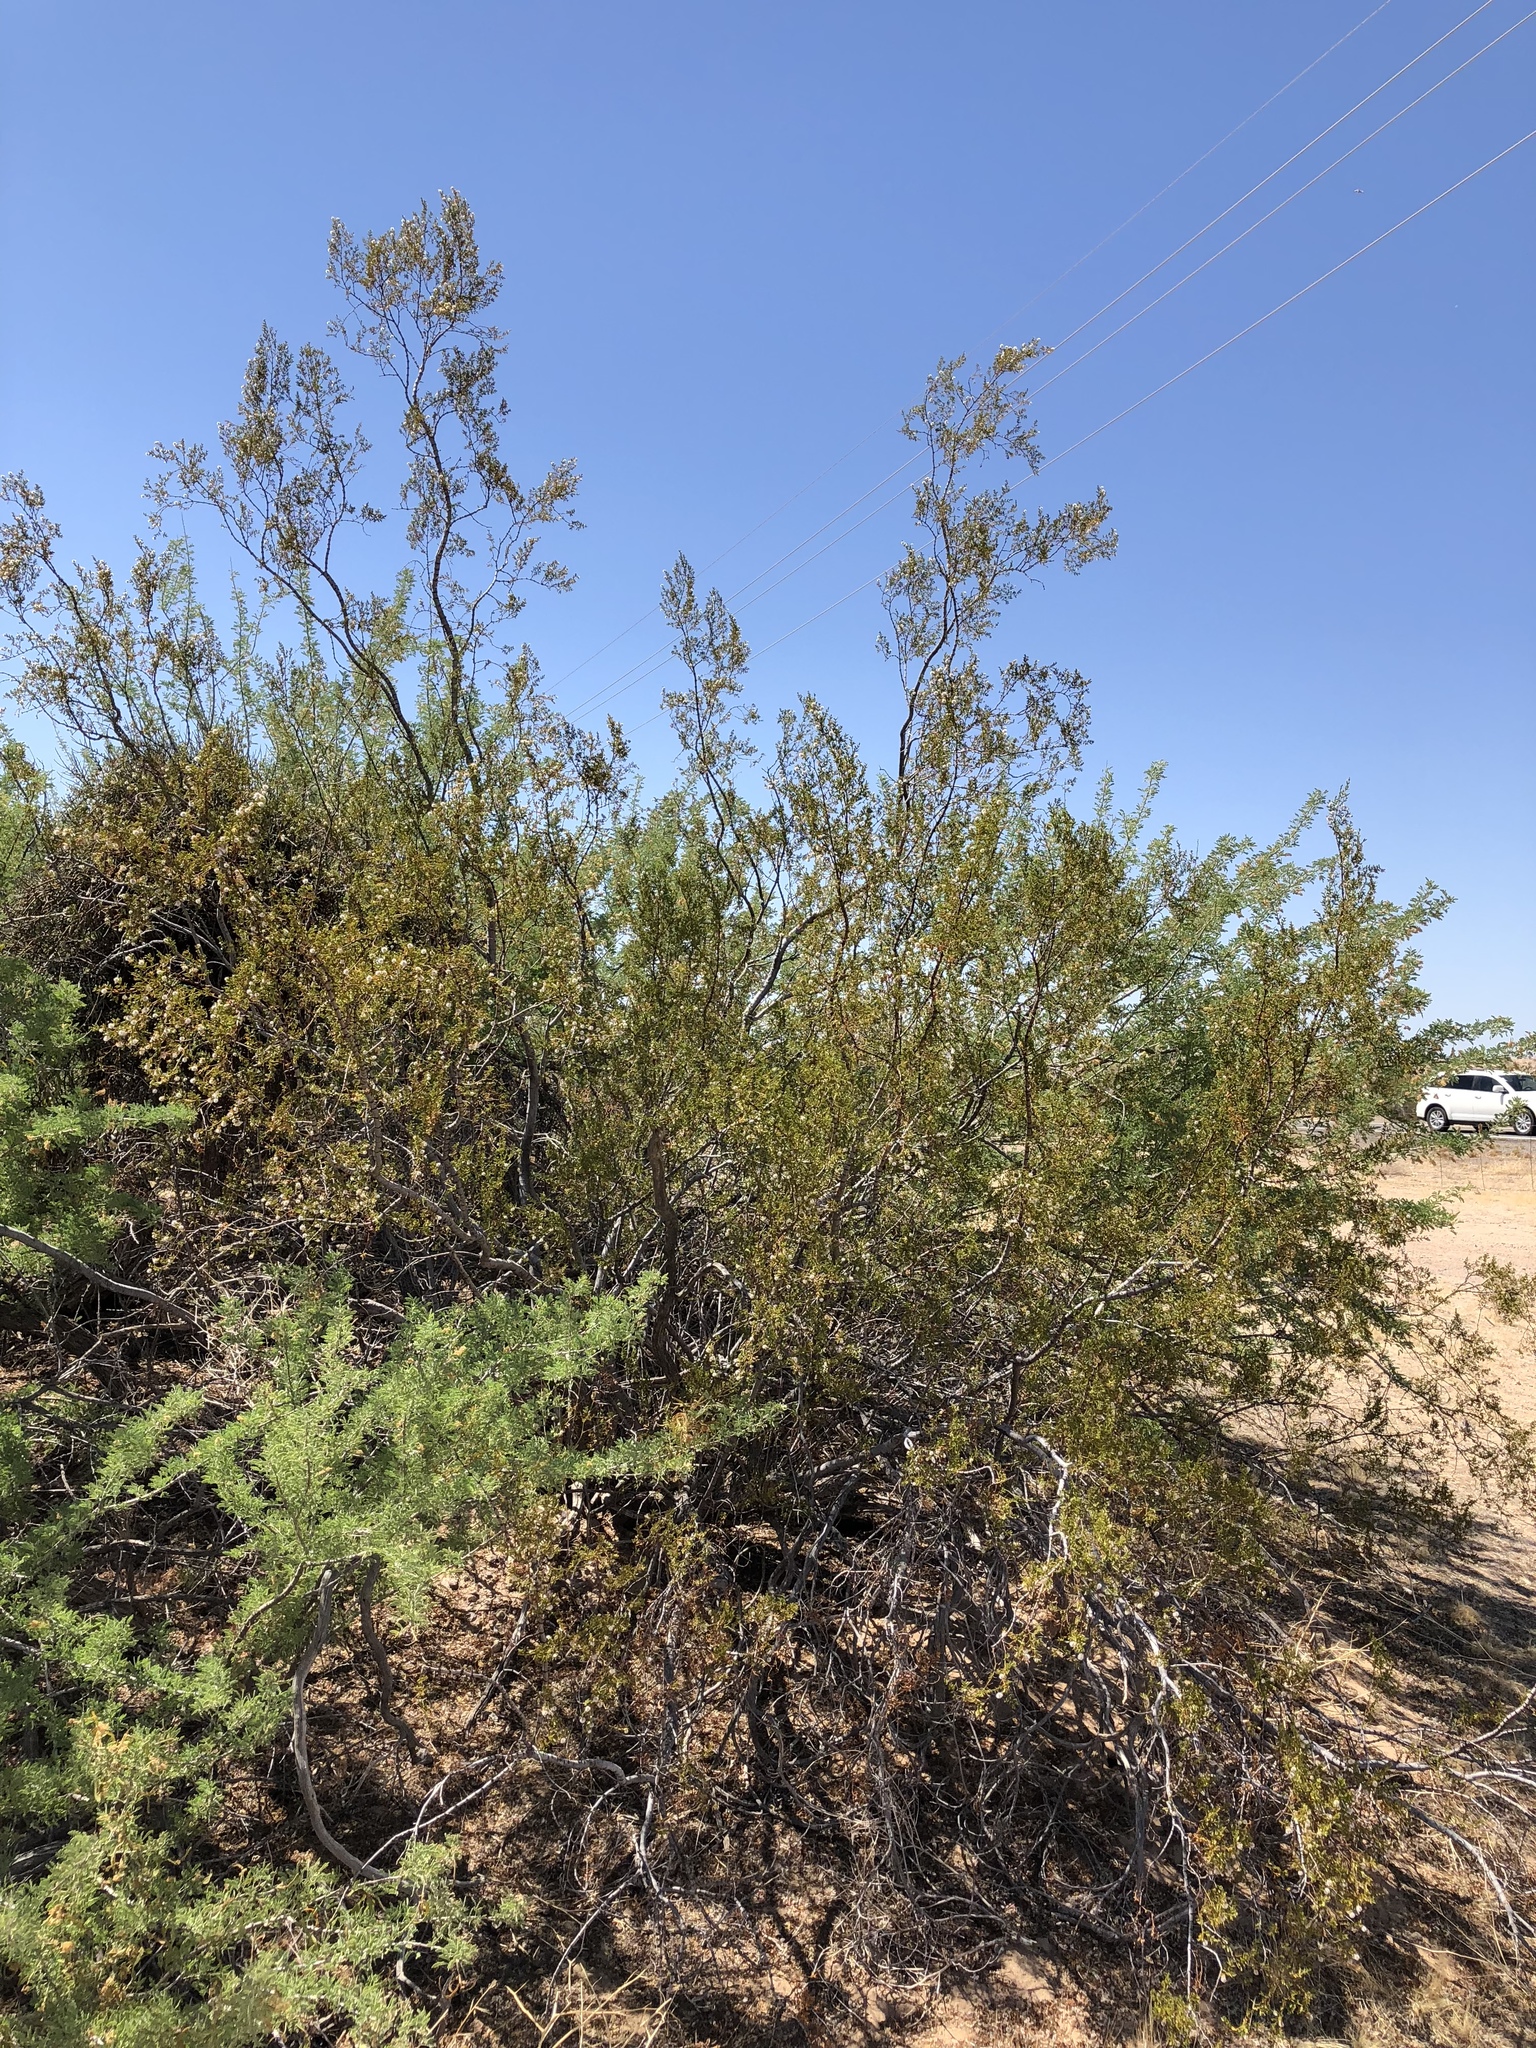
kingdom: Plantae
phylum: Tracheophyta
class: Magnoliopsida
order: Zygophyllales
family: Zygophyllaceae
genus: Larrea
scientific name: Larrea tridentata
